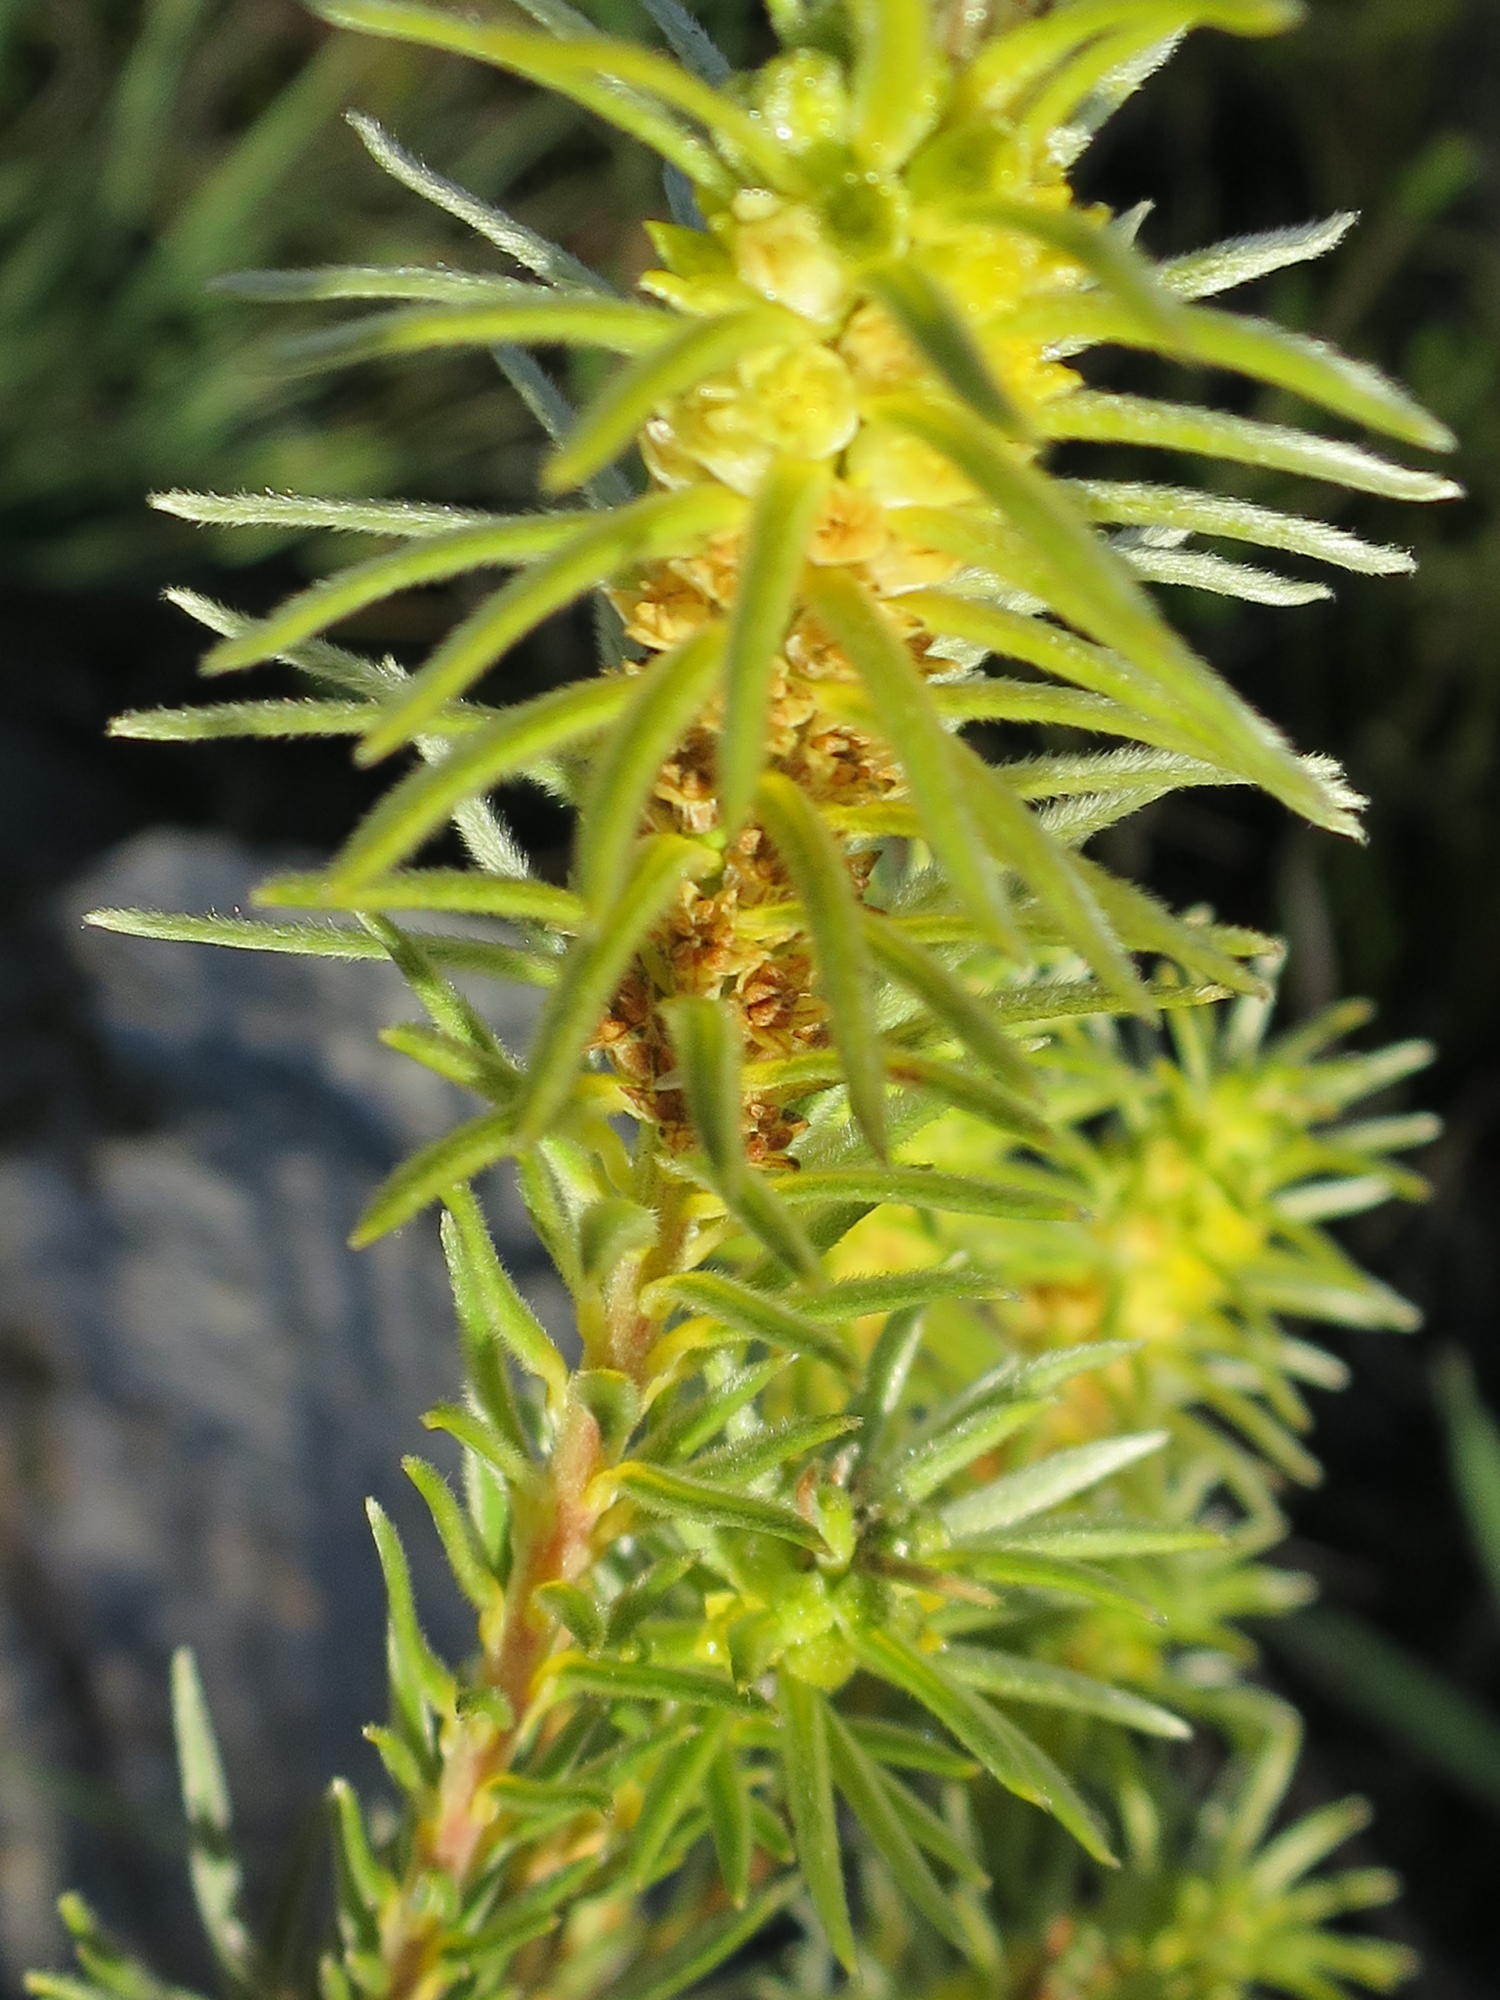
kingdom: Plantae
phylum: Tracheophyta
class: Magnoliopsida
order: Rosales
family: Rhamnaceae
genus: Phylica
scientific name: Phylica velutina
